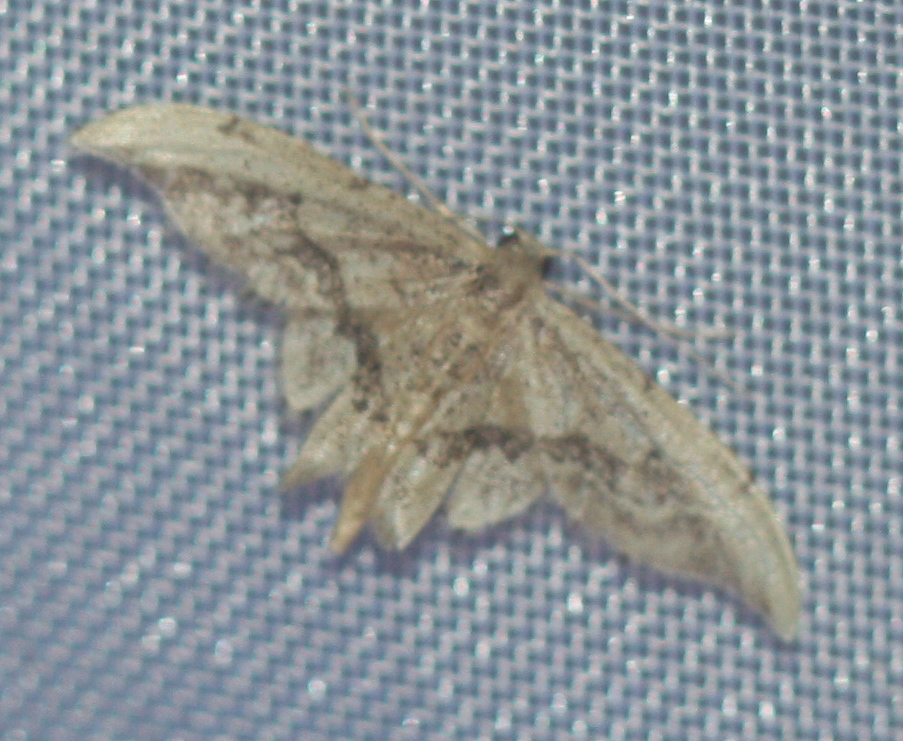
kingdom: Animalia
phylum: Arthropoda
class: Insecta
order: Lepidoptera
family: Geometridae
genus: Idaea
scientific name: Idaea elata
